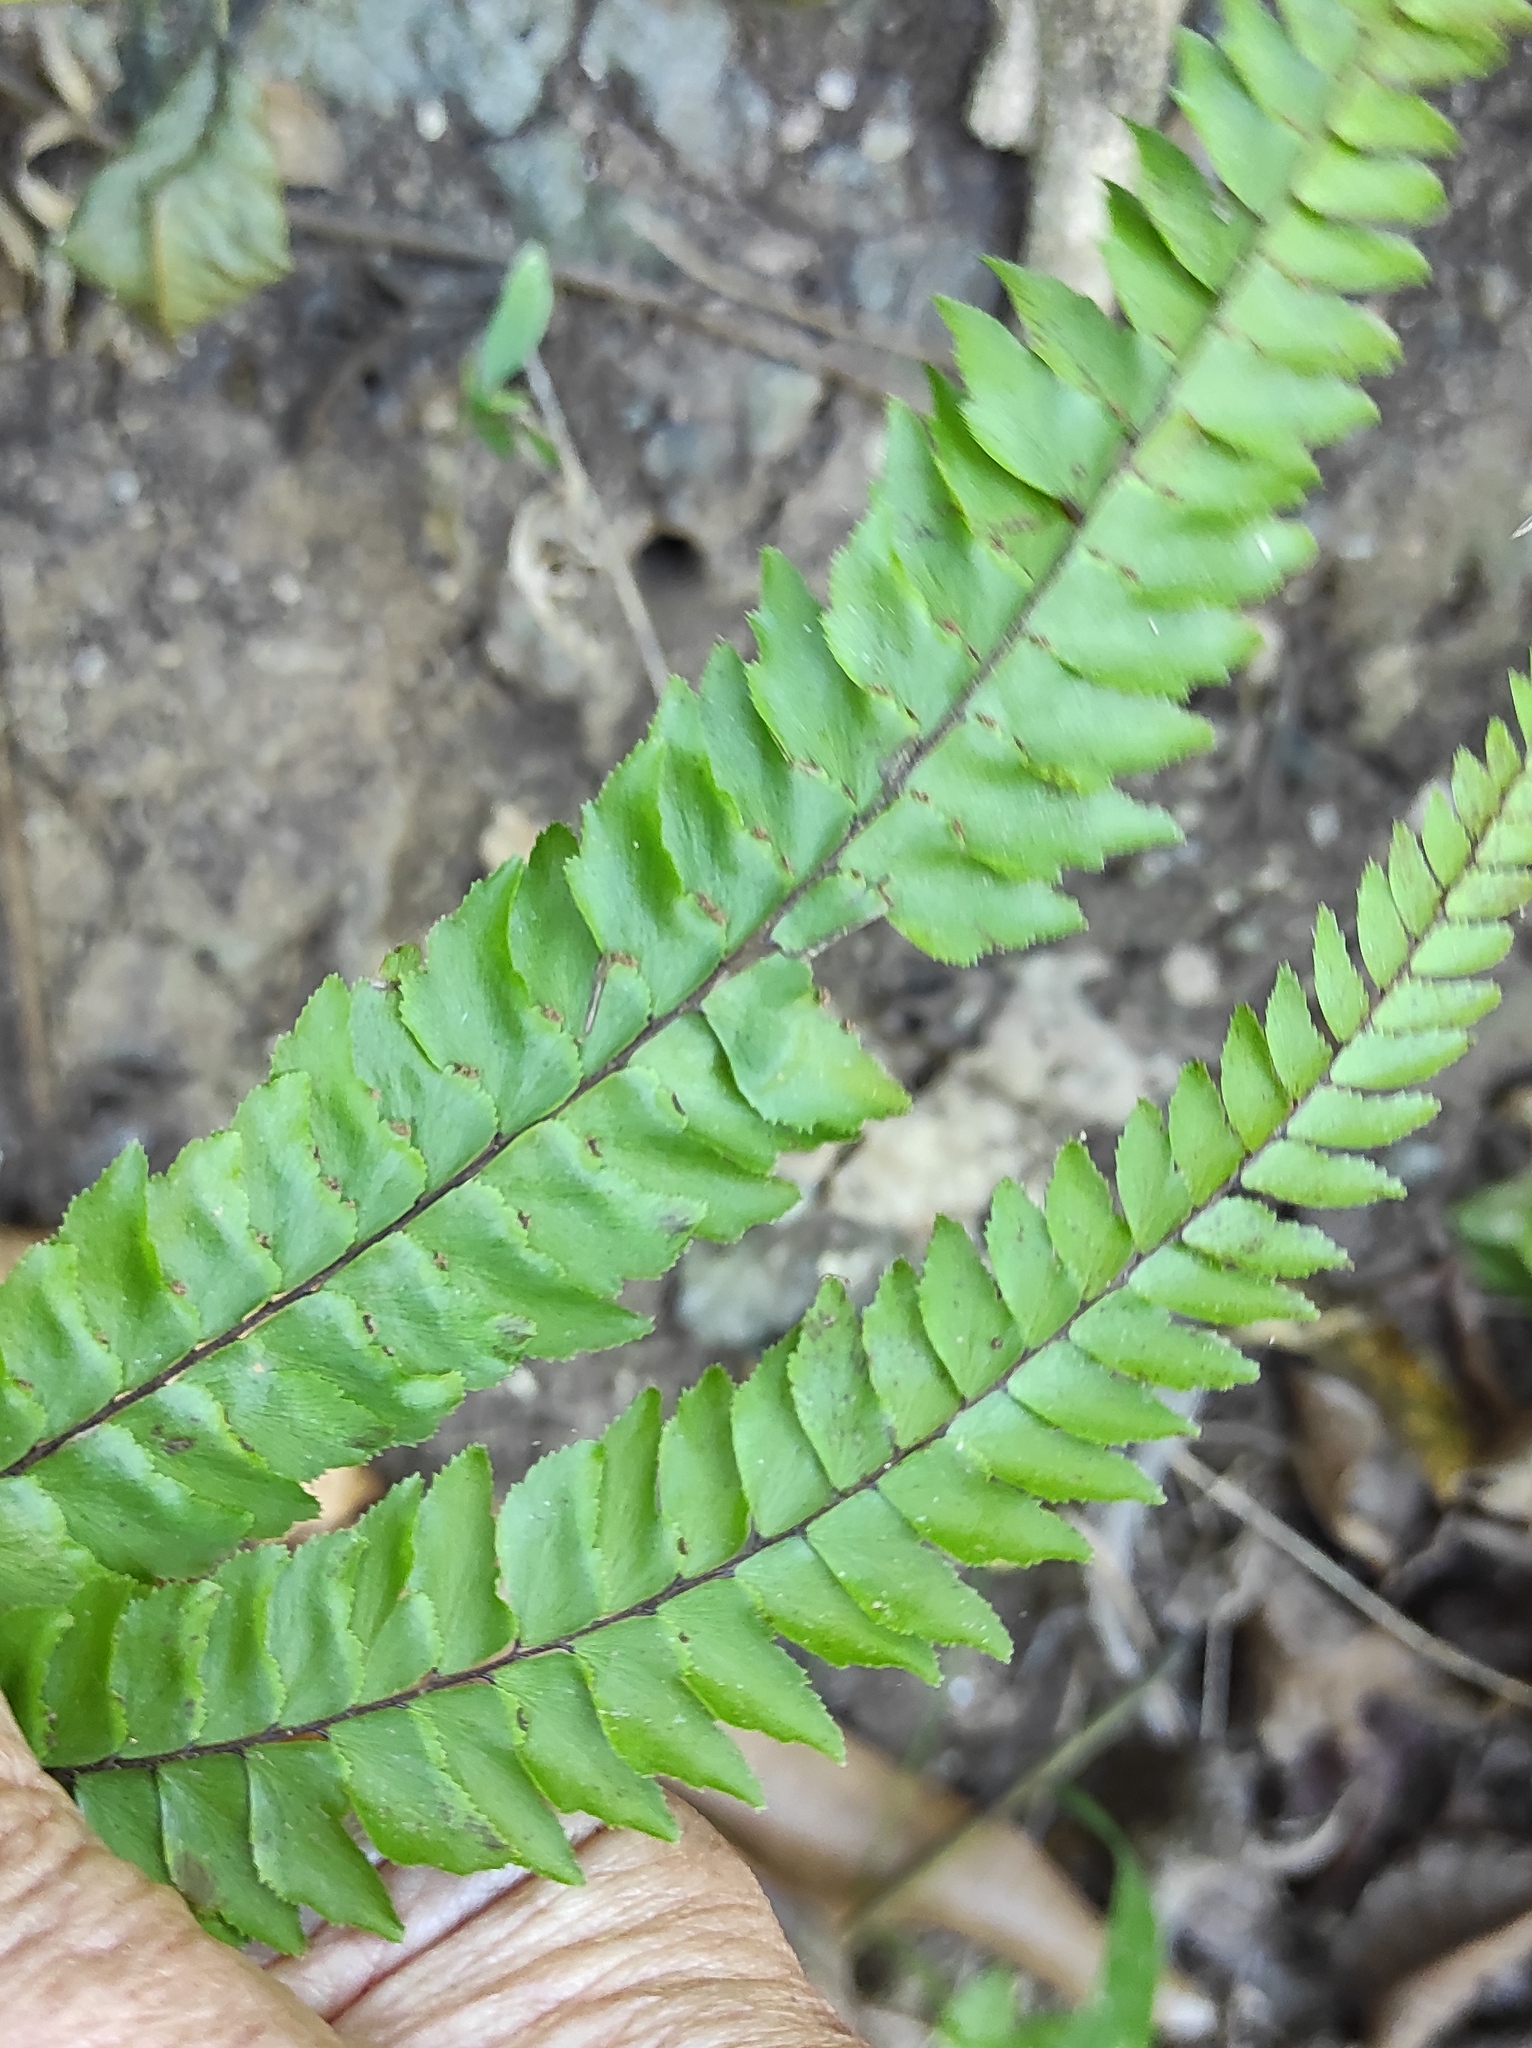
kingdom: Plantae
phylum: Tracheophyta
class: Polypodiopsida
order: Polypodiales
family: Pteridaceae
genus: Adiantum
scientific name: Adiantum pyramidale
